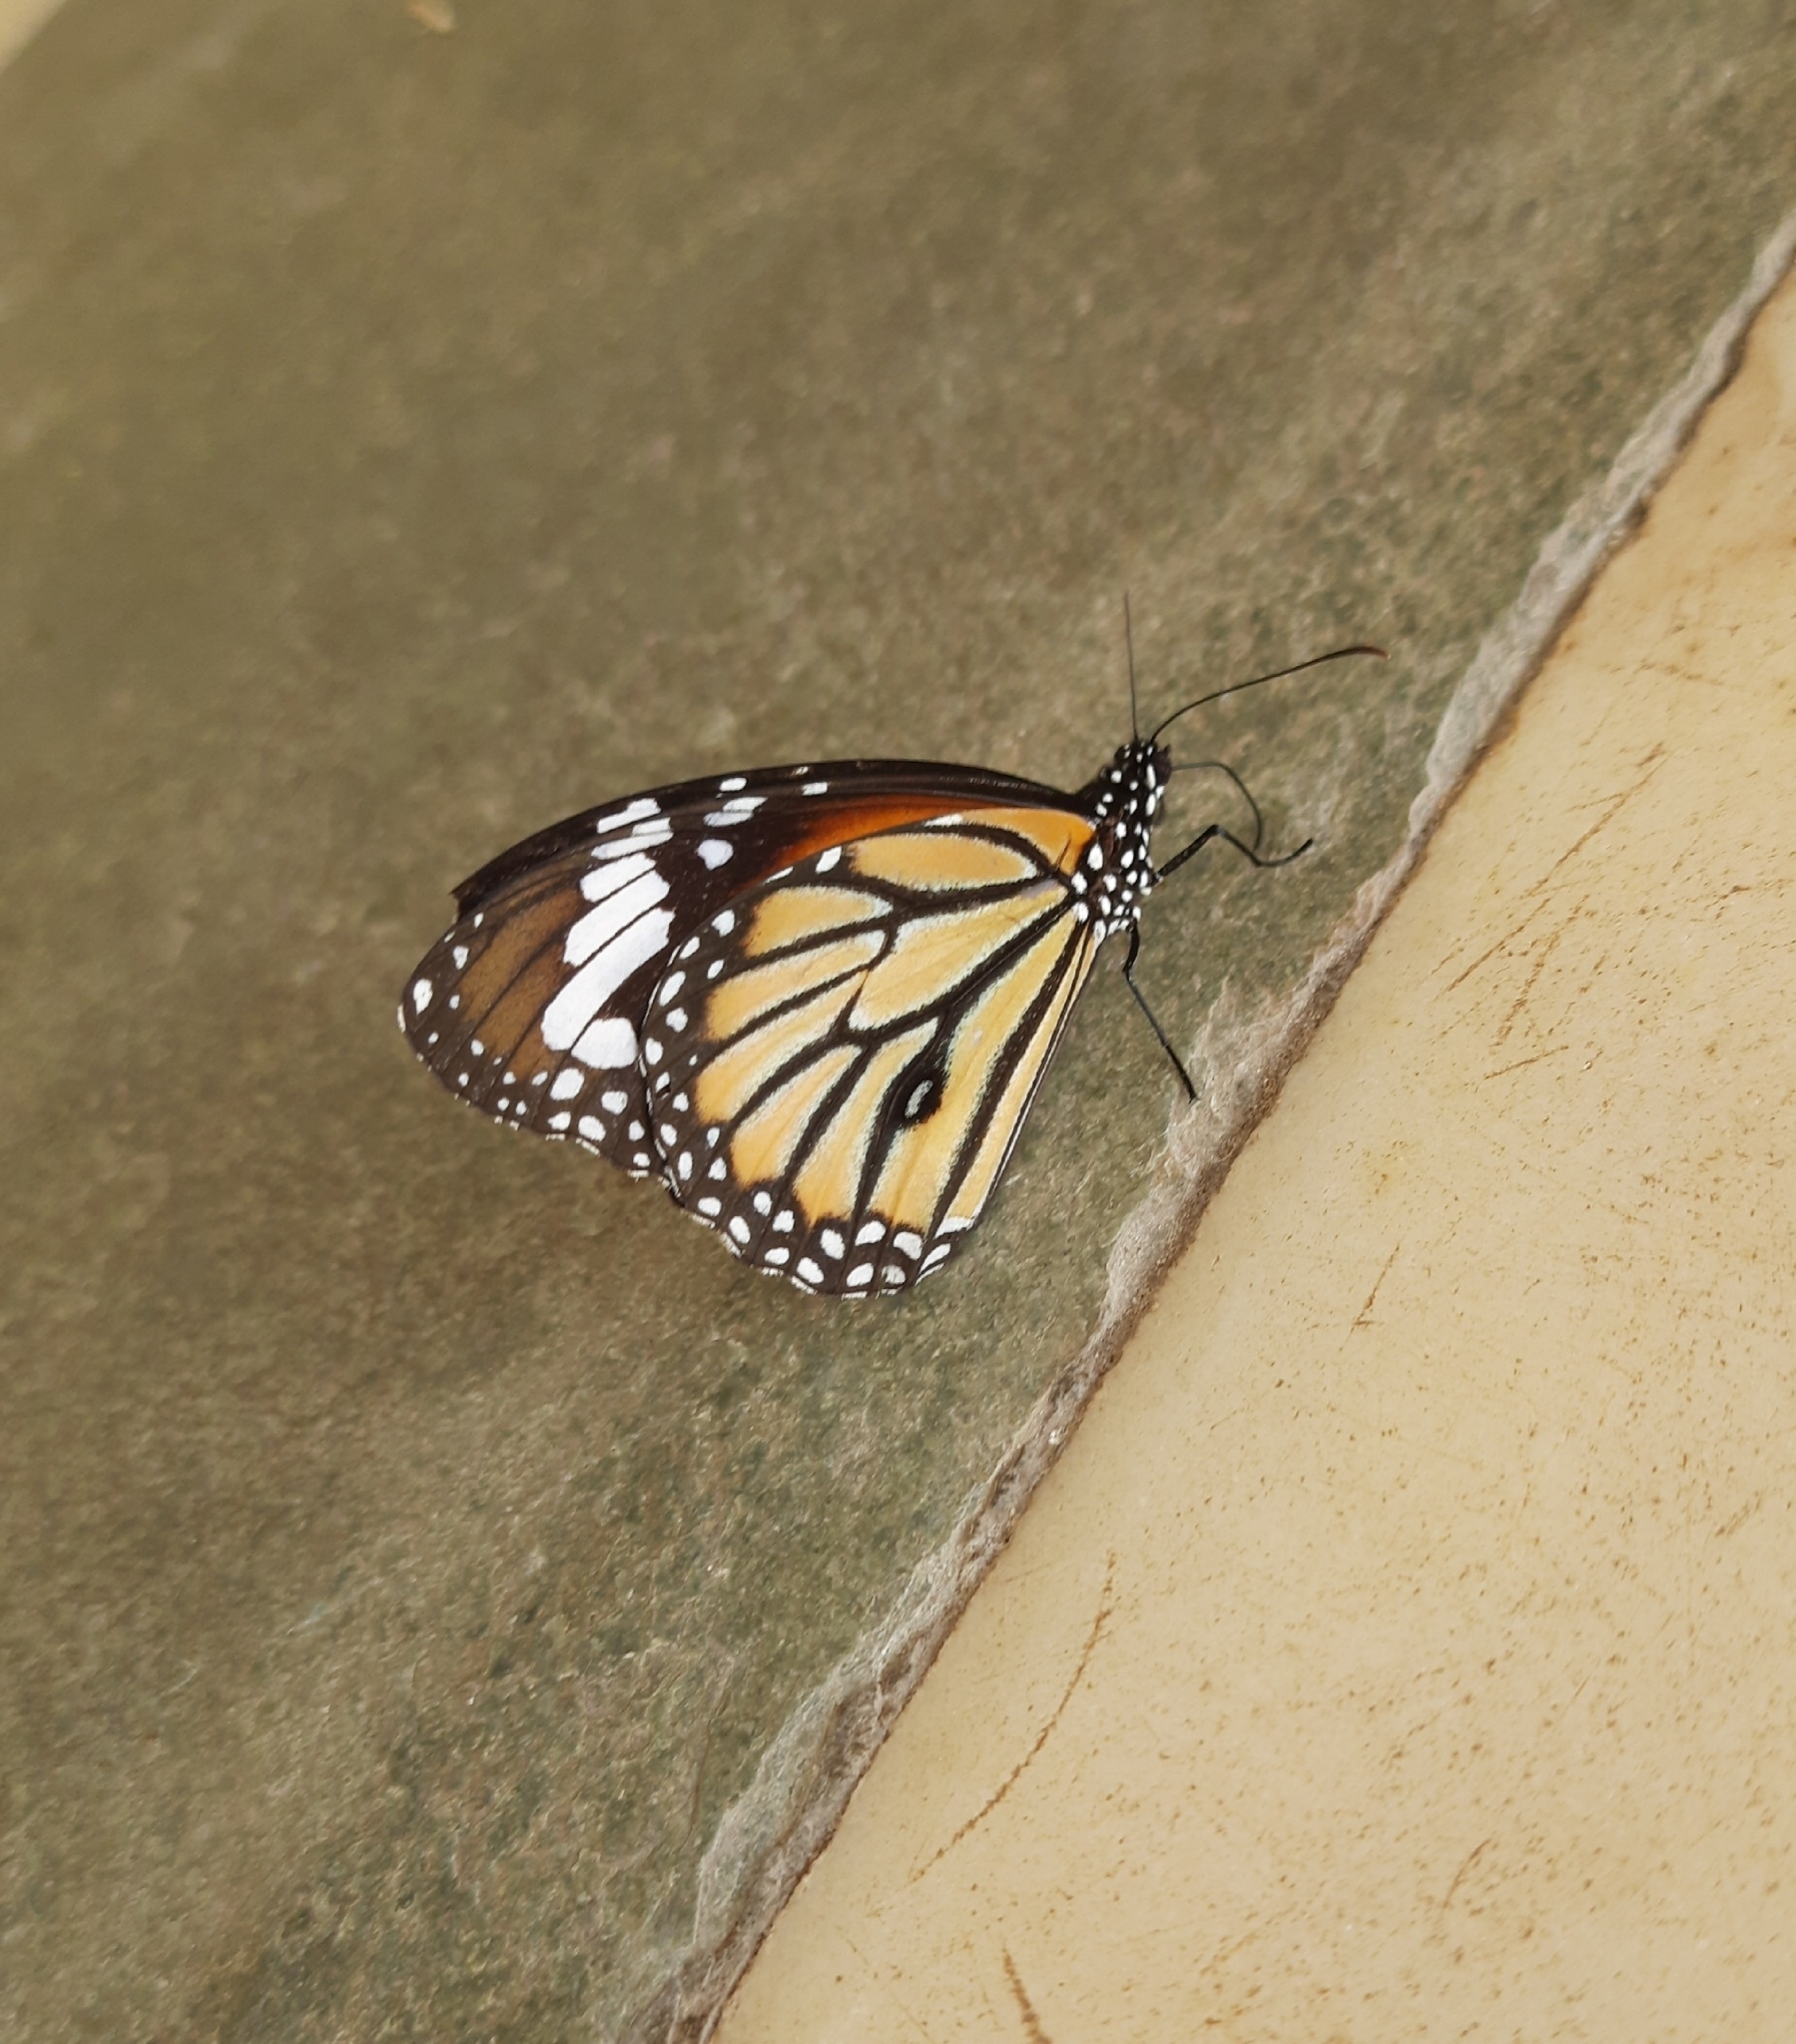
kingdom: Animalia
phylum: Arthropoda
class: Insecta
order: Lepidoptera
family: Nymphalidae
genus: Danaus
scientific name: Danaus genutia
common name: Common tiger butterfly
